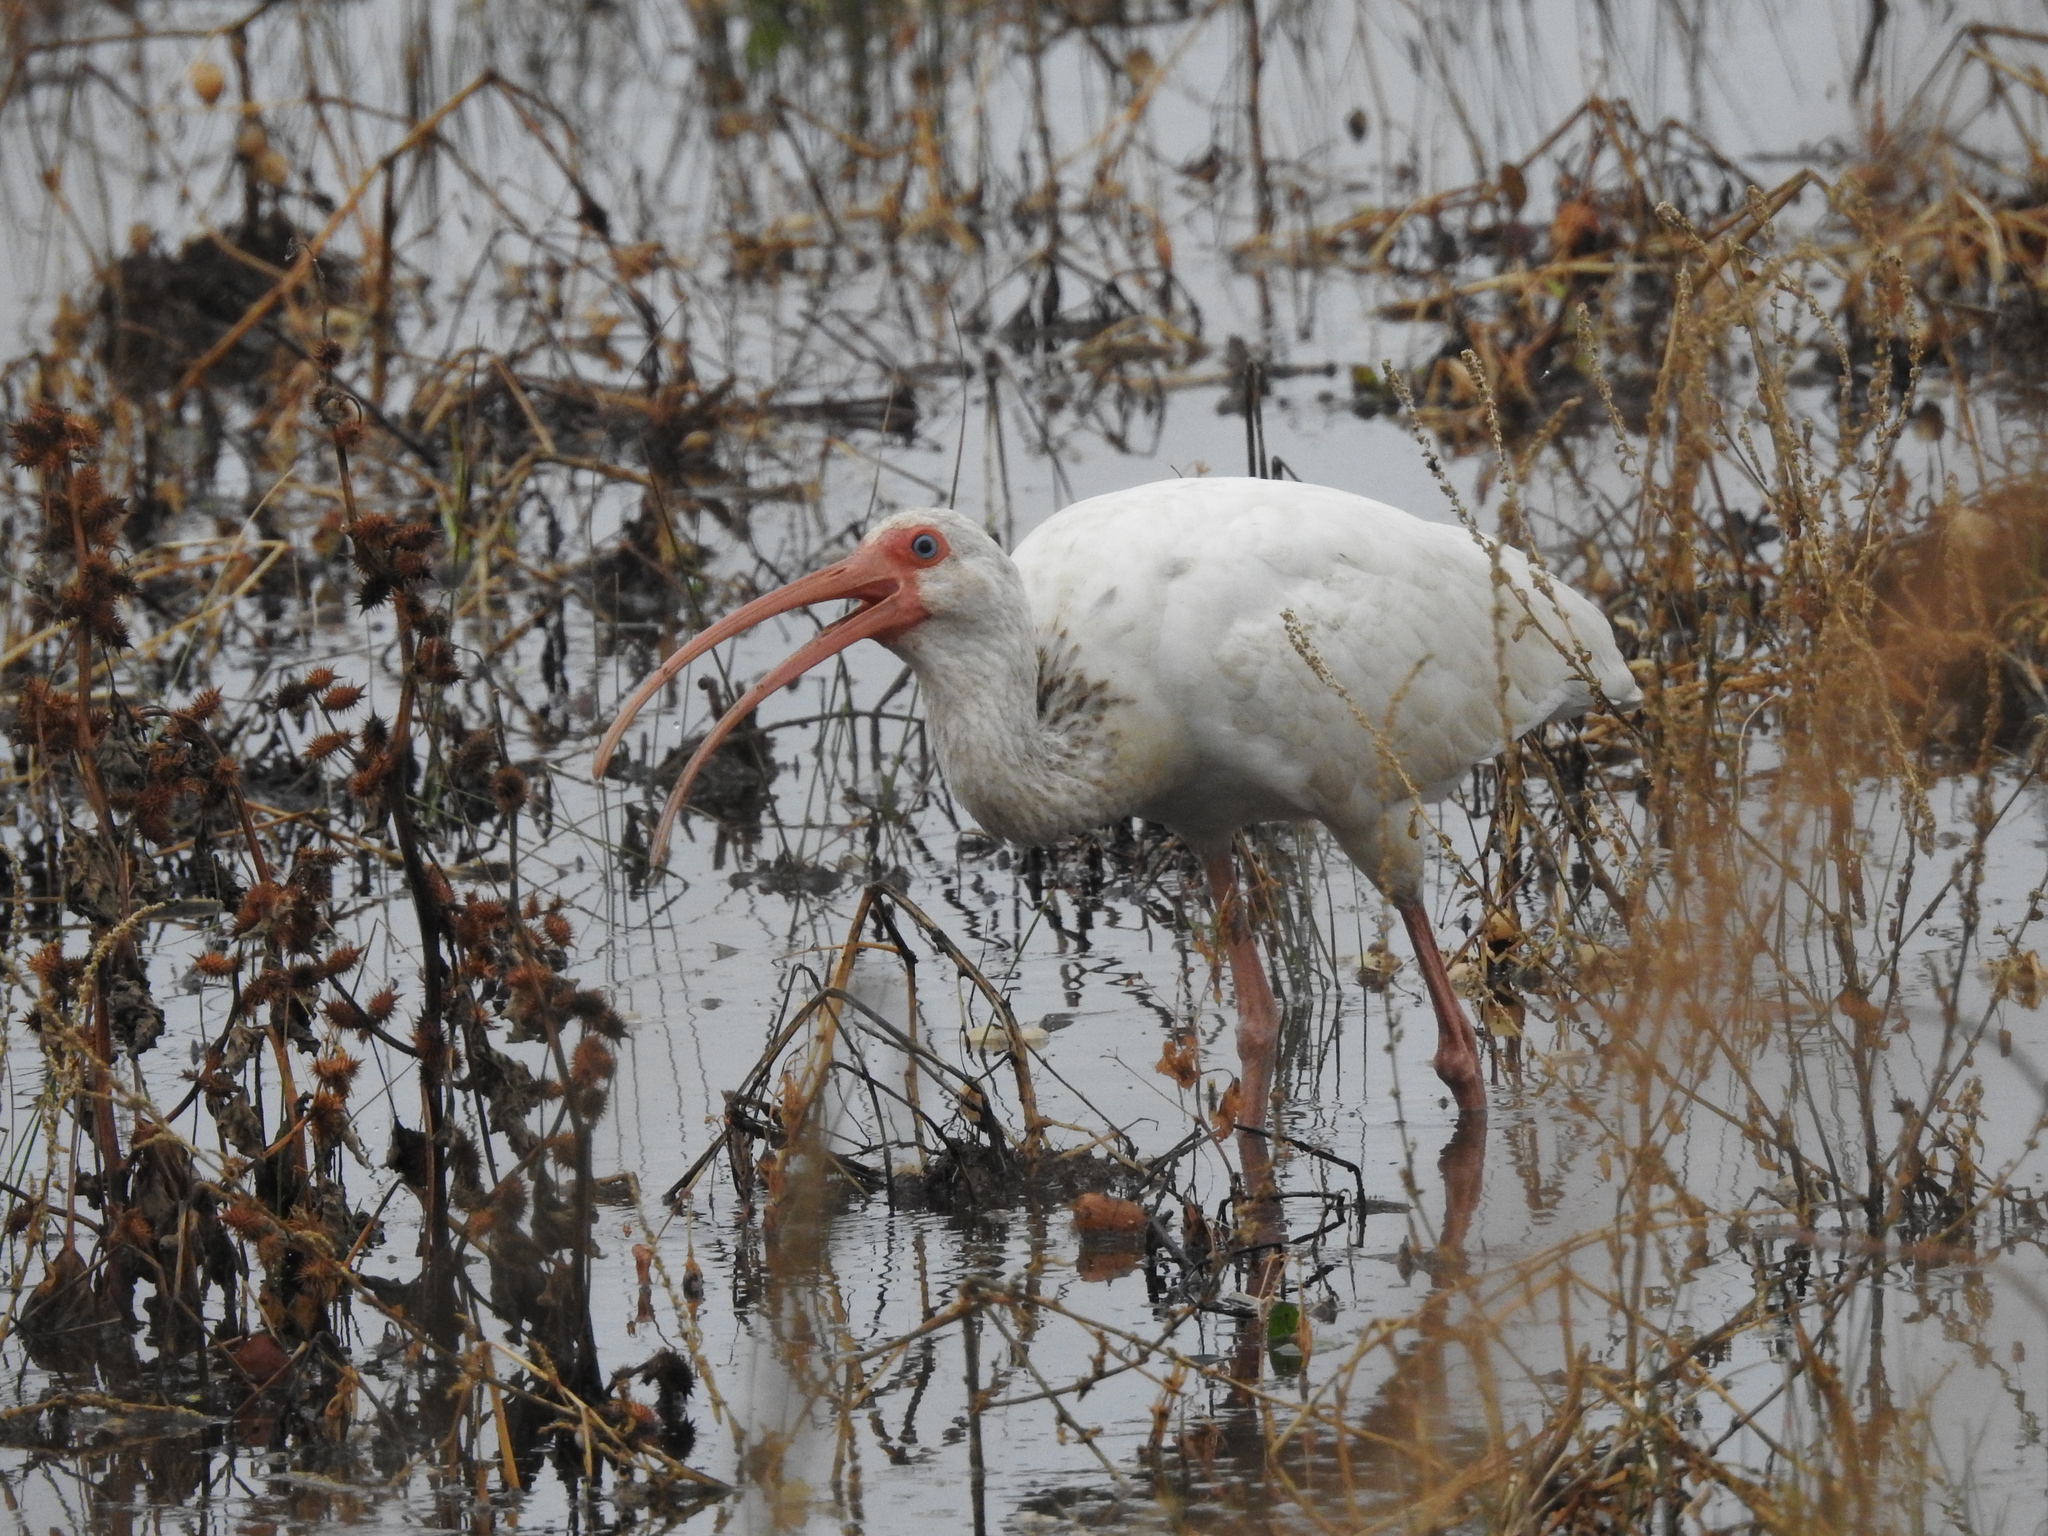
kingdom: Animalia
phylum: Chordata
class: Aves
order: Pelecaniformes
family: Threskiornithidae
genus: Eudocimus
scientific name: Eudocimus albus
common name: White ibis
